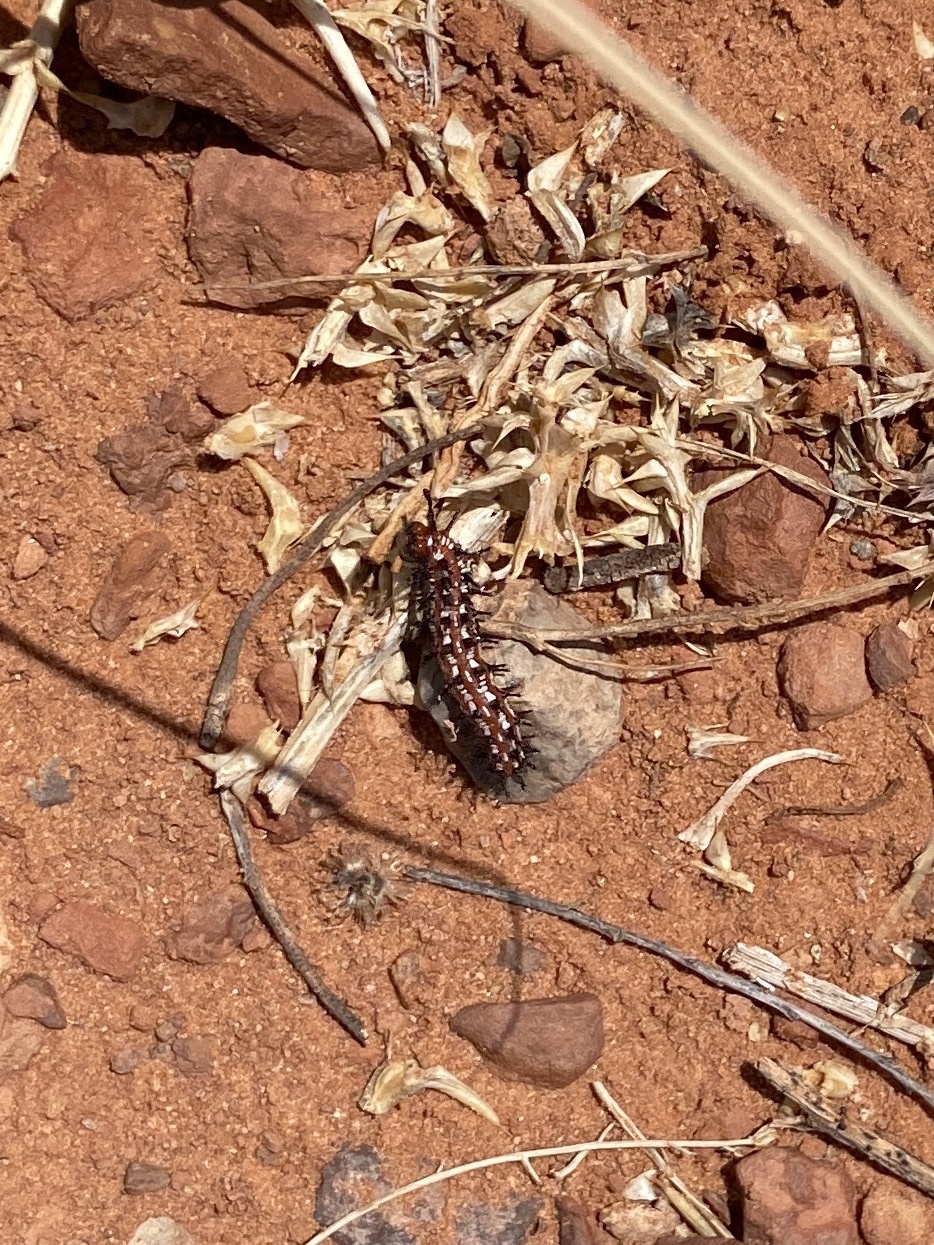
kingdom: Animalia
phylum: Arthropoda
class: Insecta
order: Lepidoptera
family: Nymphalidae
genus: Euptoieta
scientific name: Euptoieta claudia
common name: Variegated fritillary
